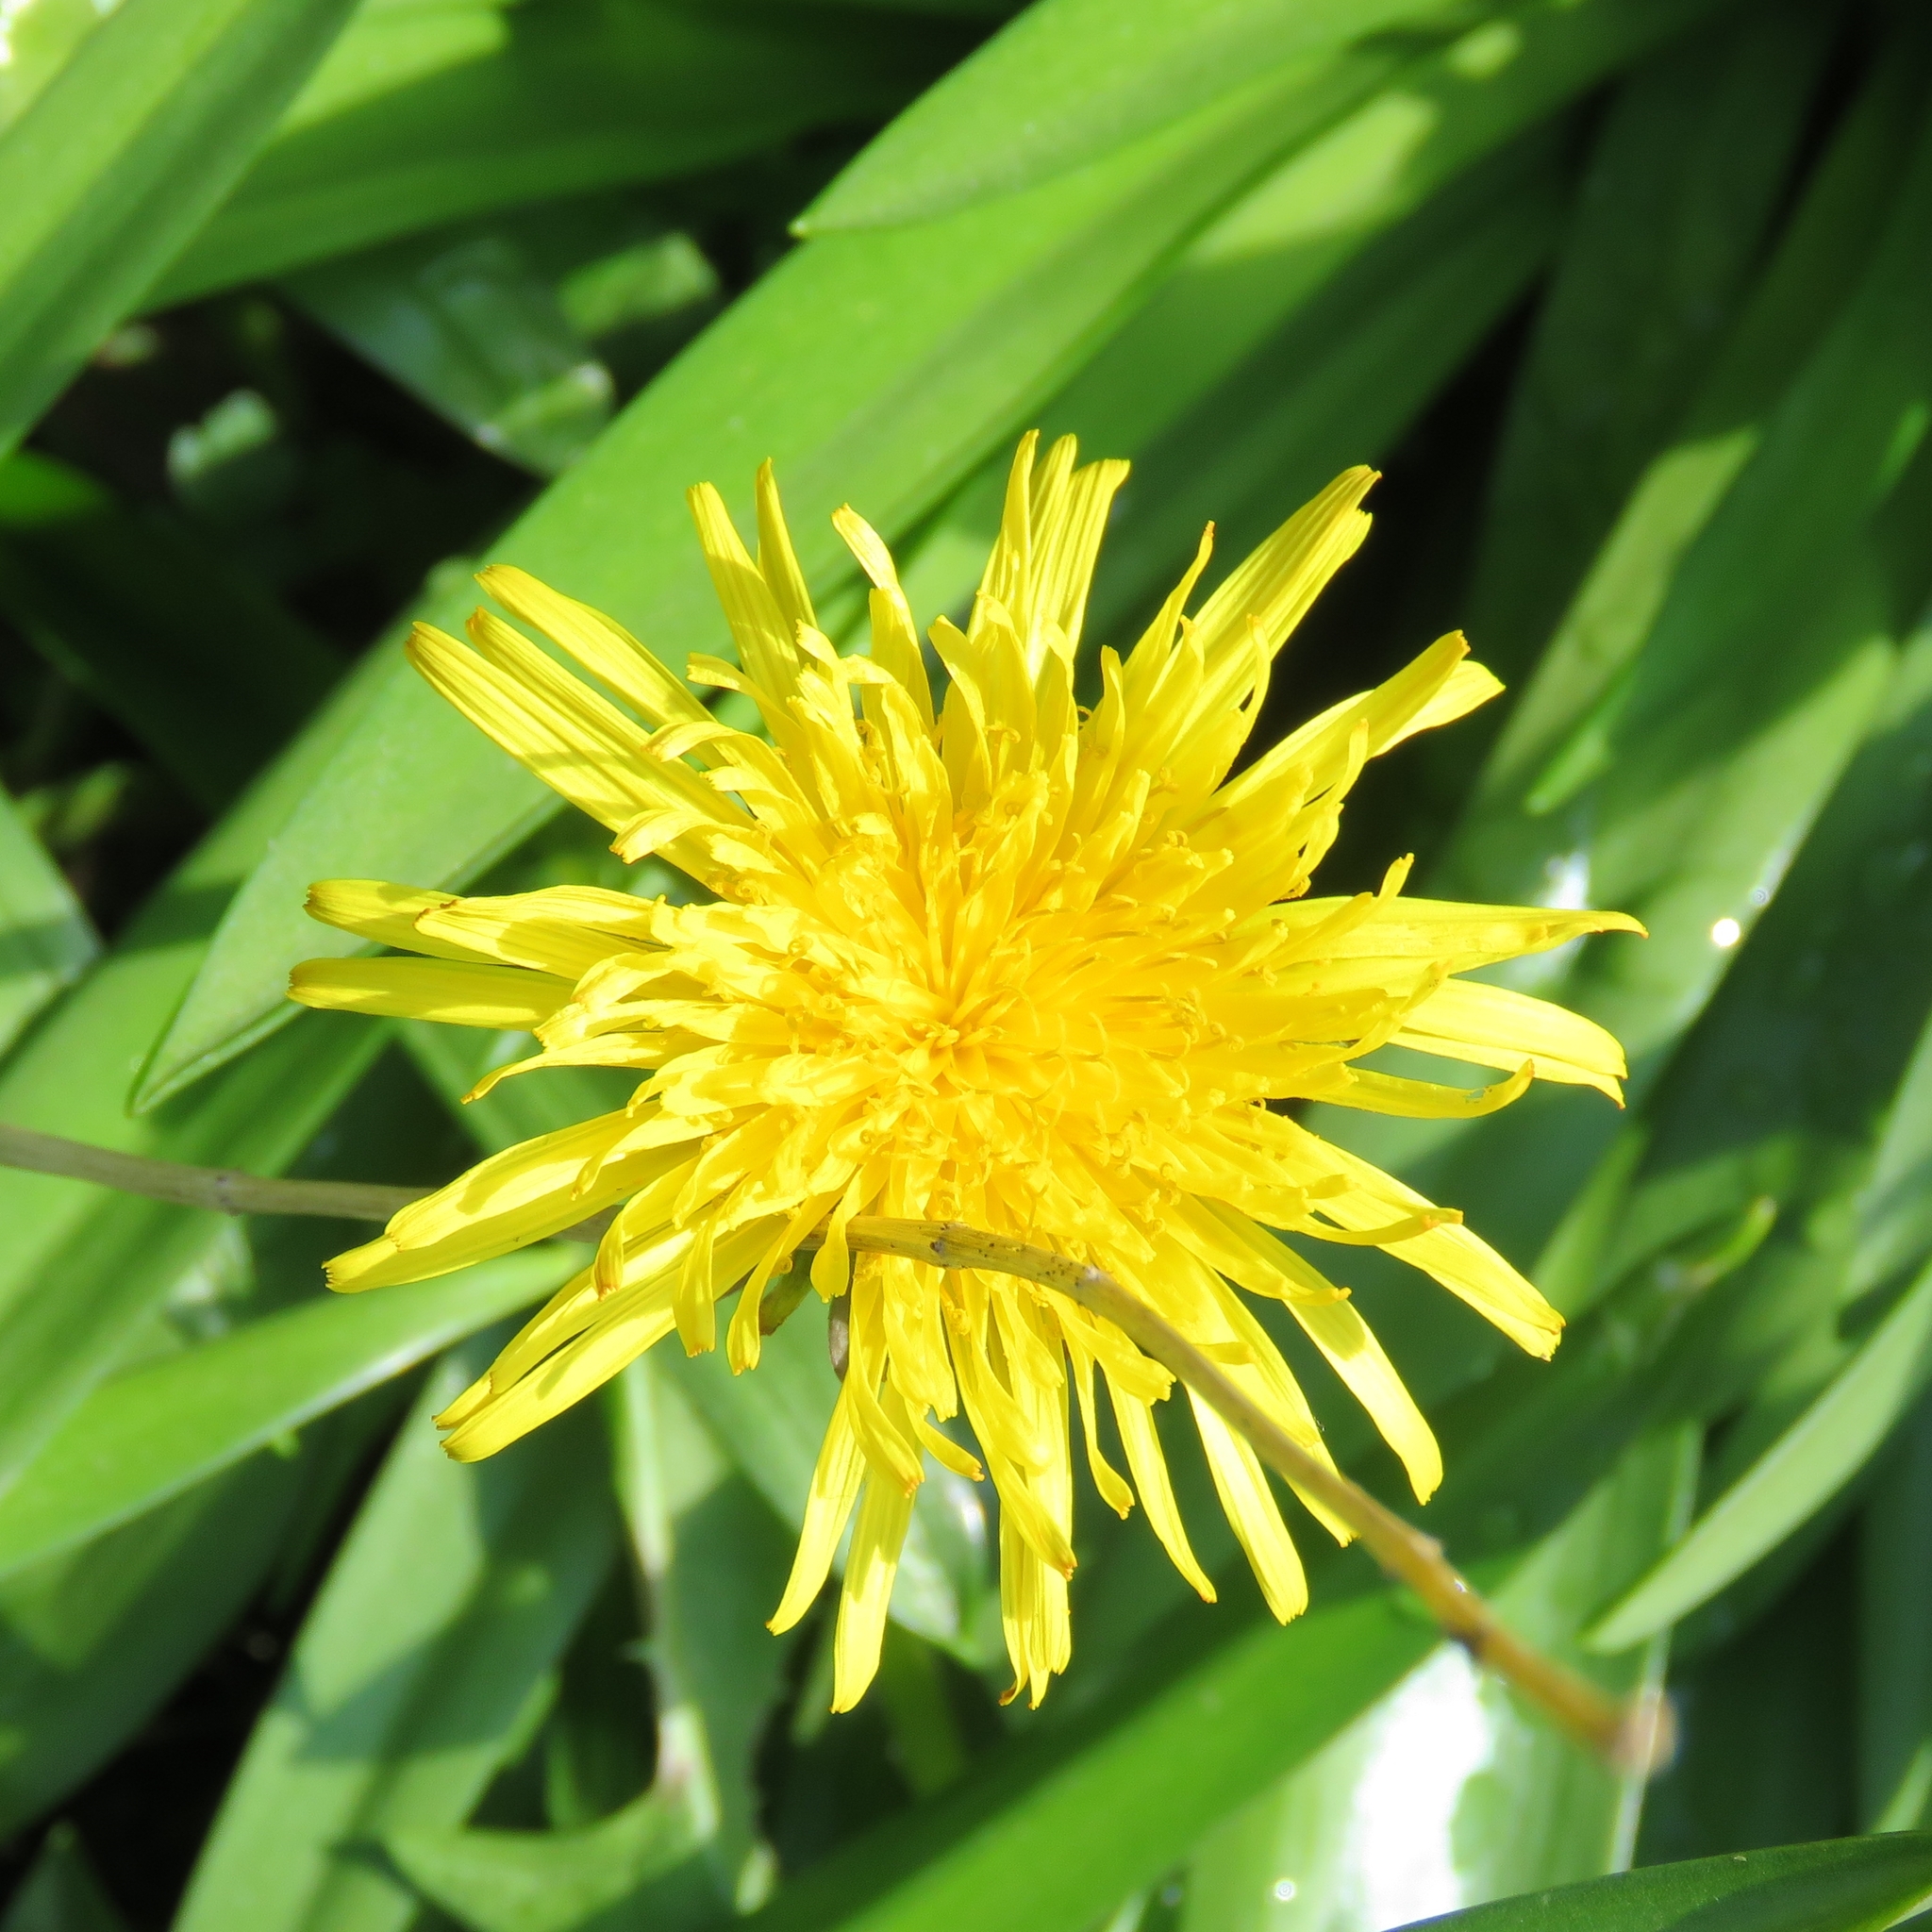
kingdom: Plantae
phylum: Tracheophyta
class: Magnoliopsida
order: Asterales
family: Asteraceae
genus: Taraxacum
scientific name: Taraxacum officinale
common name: Common dandelion
